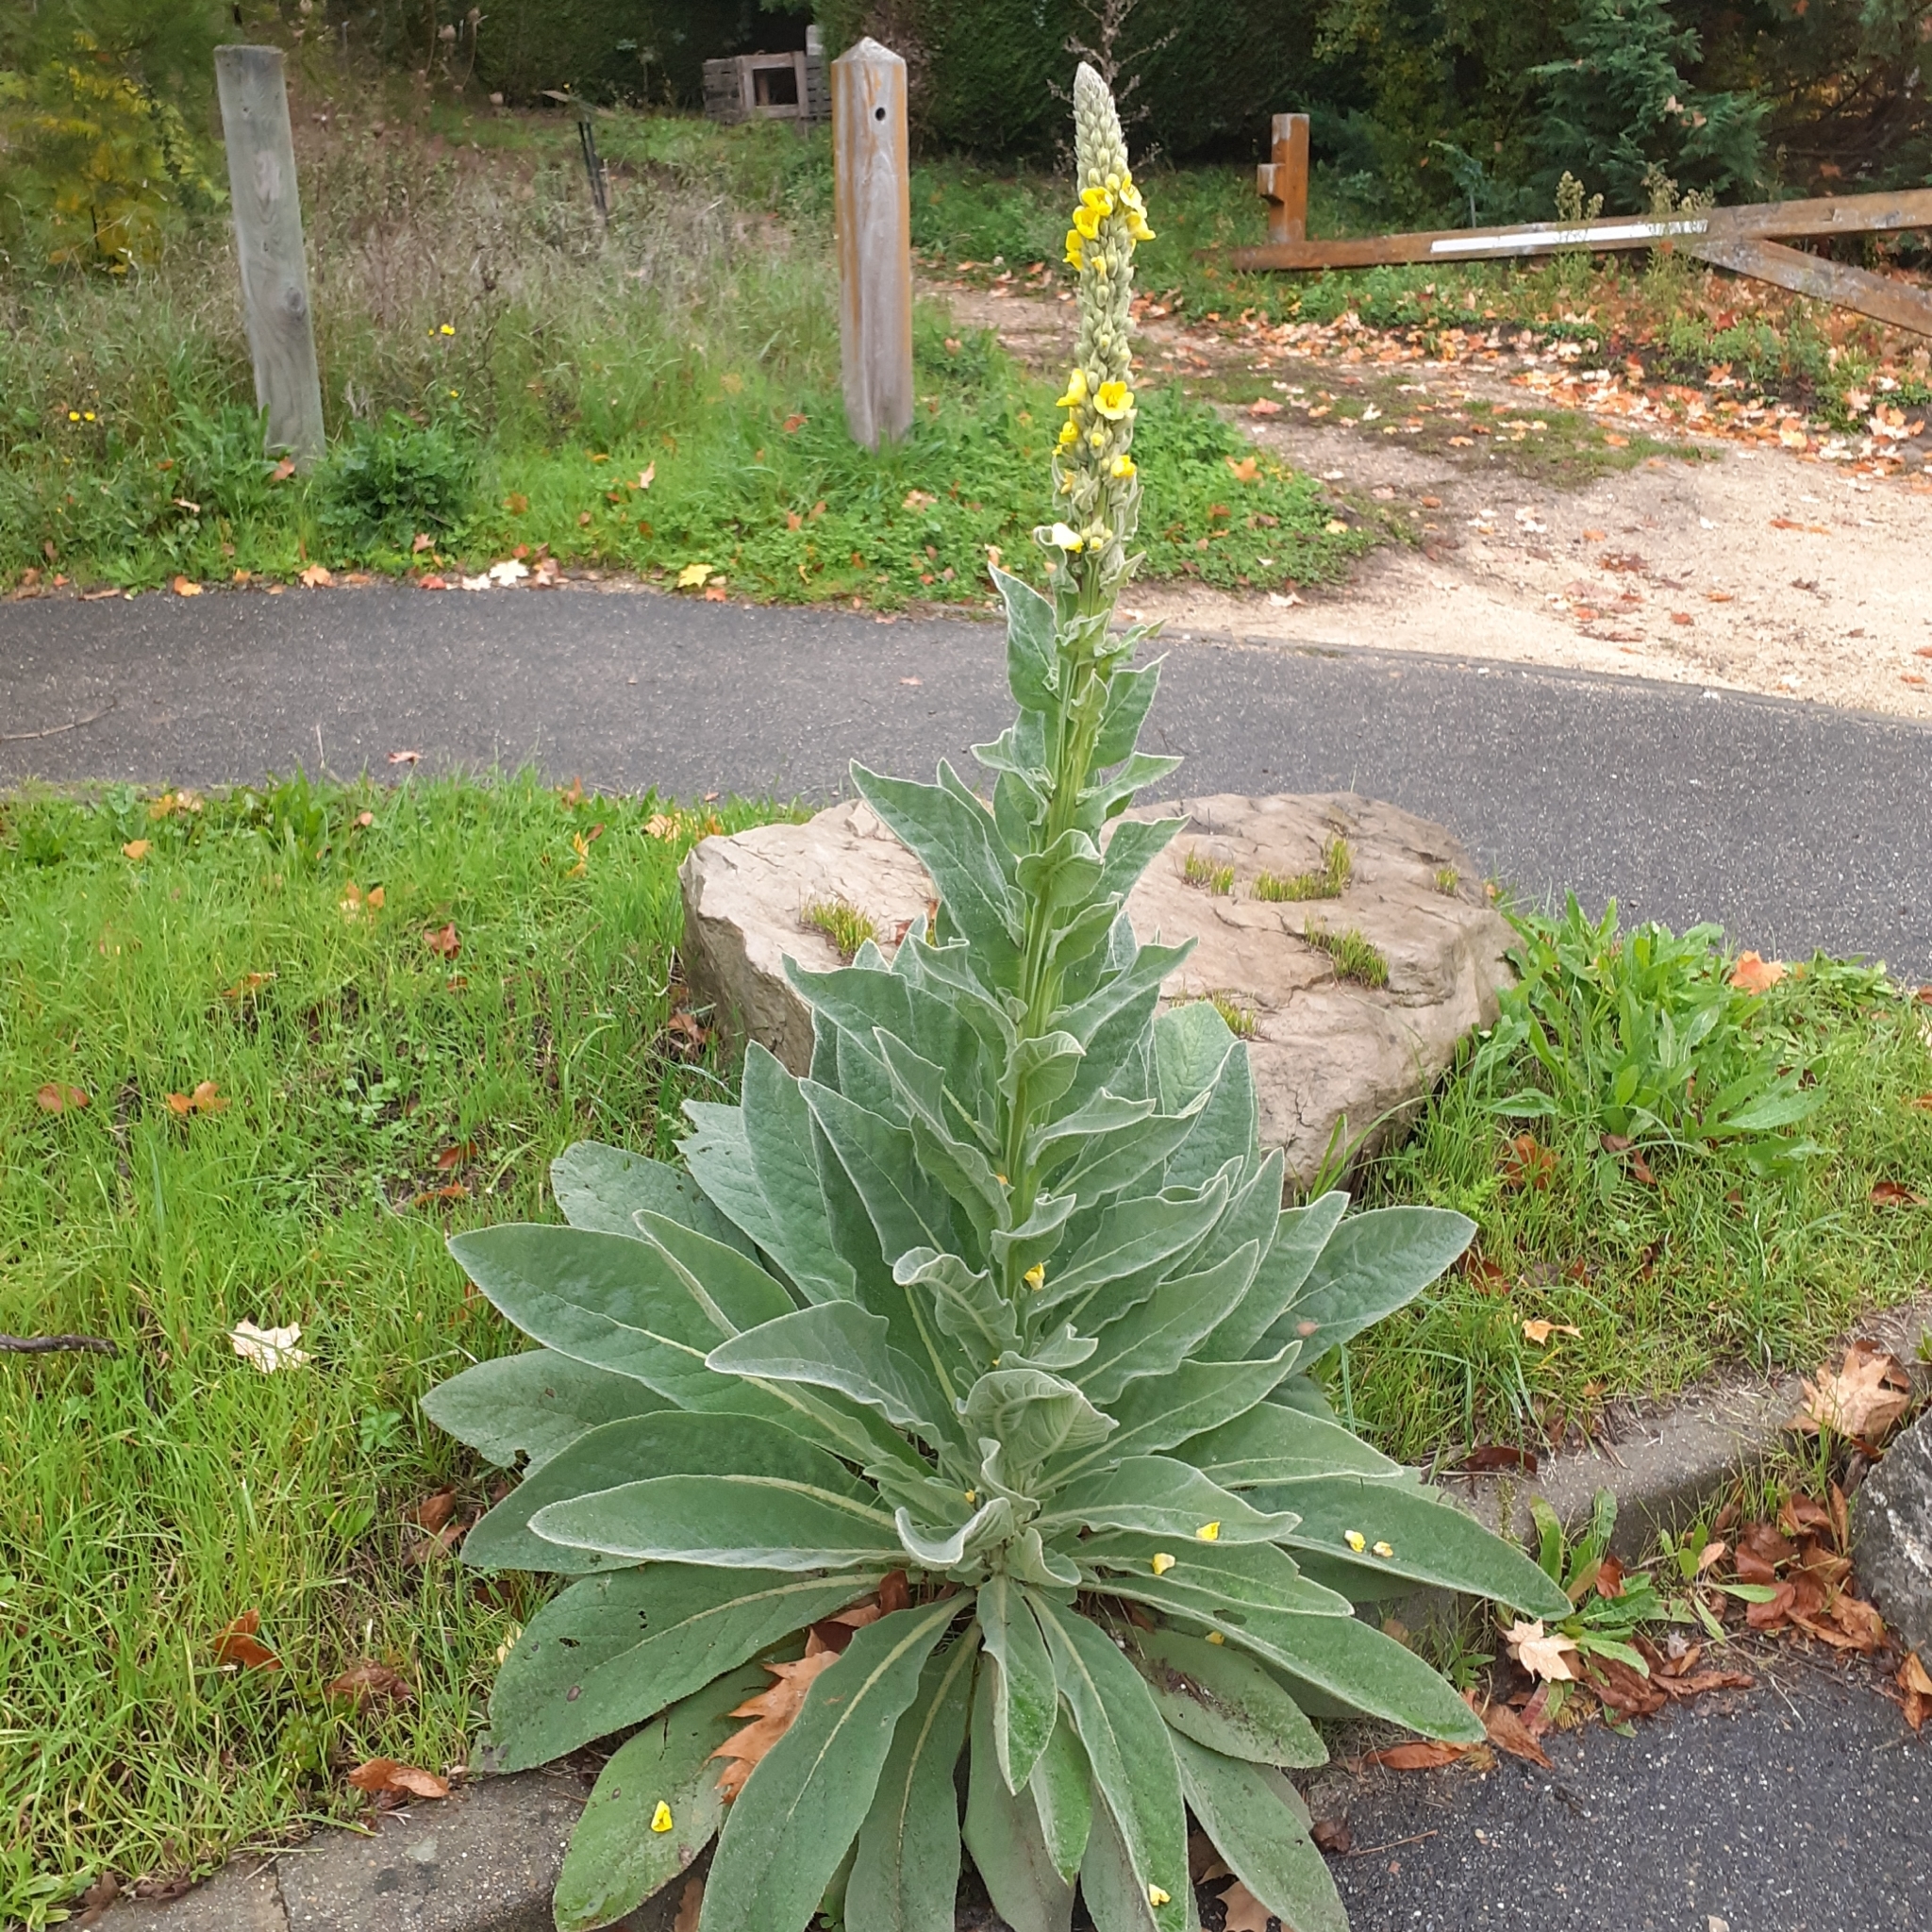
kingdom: Plantae
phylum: Tracheophyta
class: Magnoliopsida
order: Lamiales
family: Scrophulariaceae
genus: Verbascum
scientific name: Verbascum thapsus
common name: Common mullein
